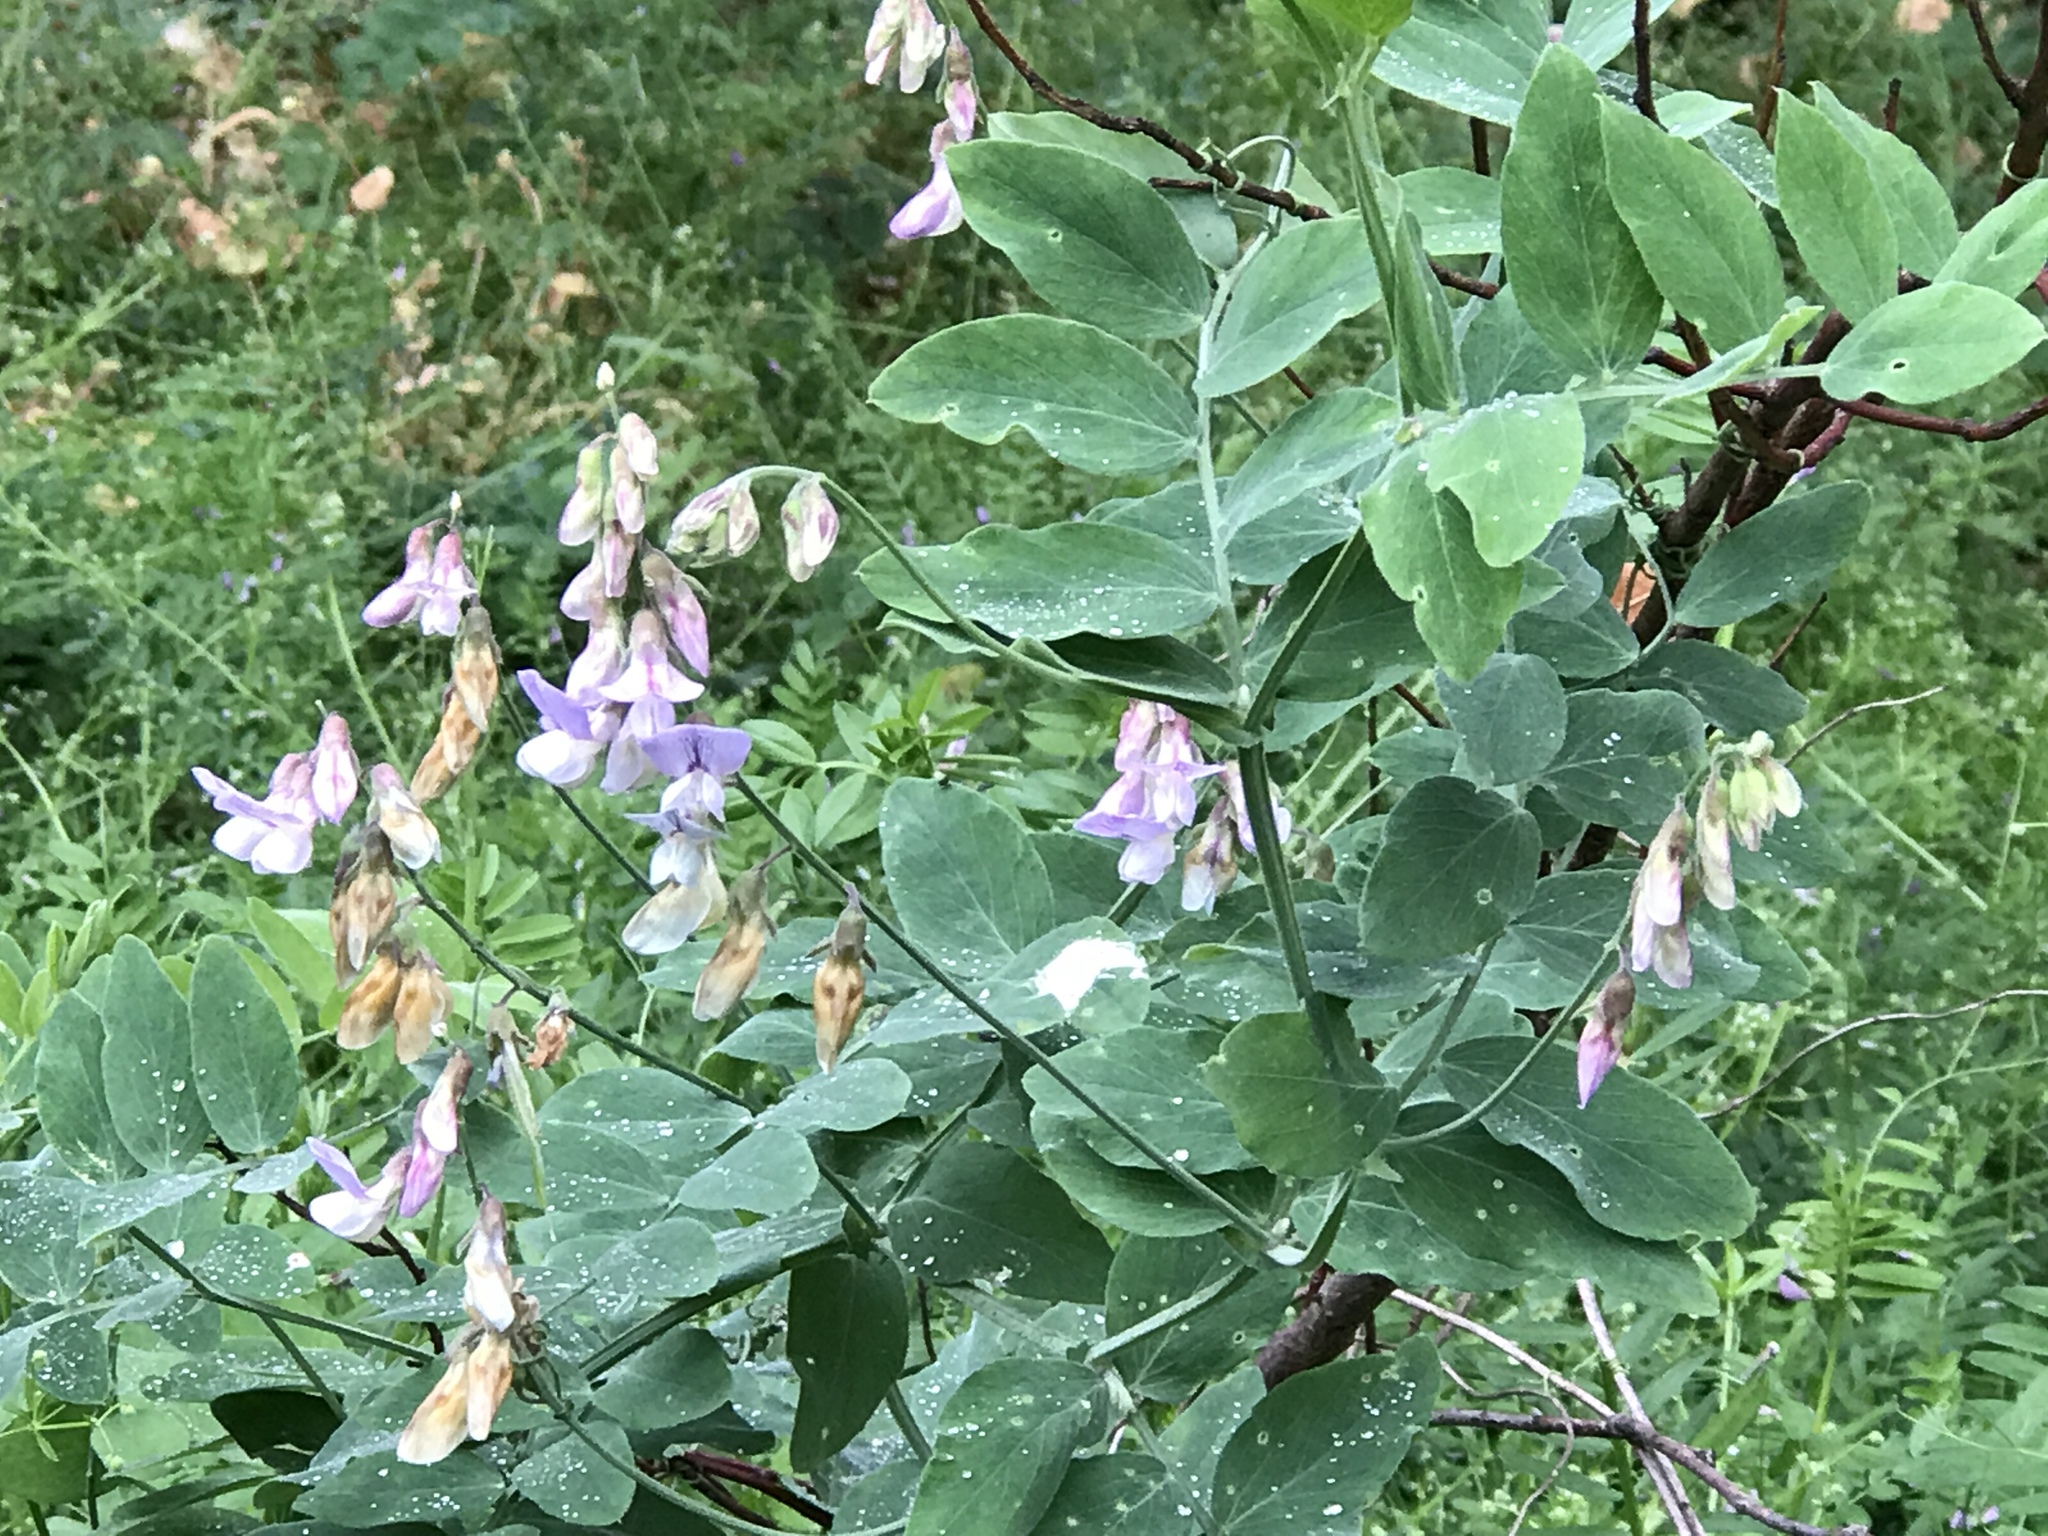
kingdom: Plantae
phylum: Tracheophyta
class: Magnoliopsida
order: Fabales
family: Fabaceae
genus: Lathyrus
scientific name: Lathyrus vestitus
